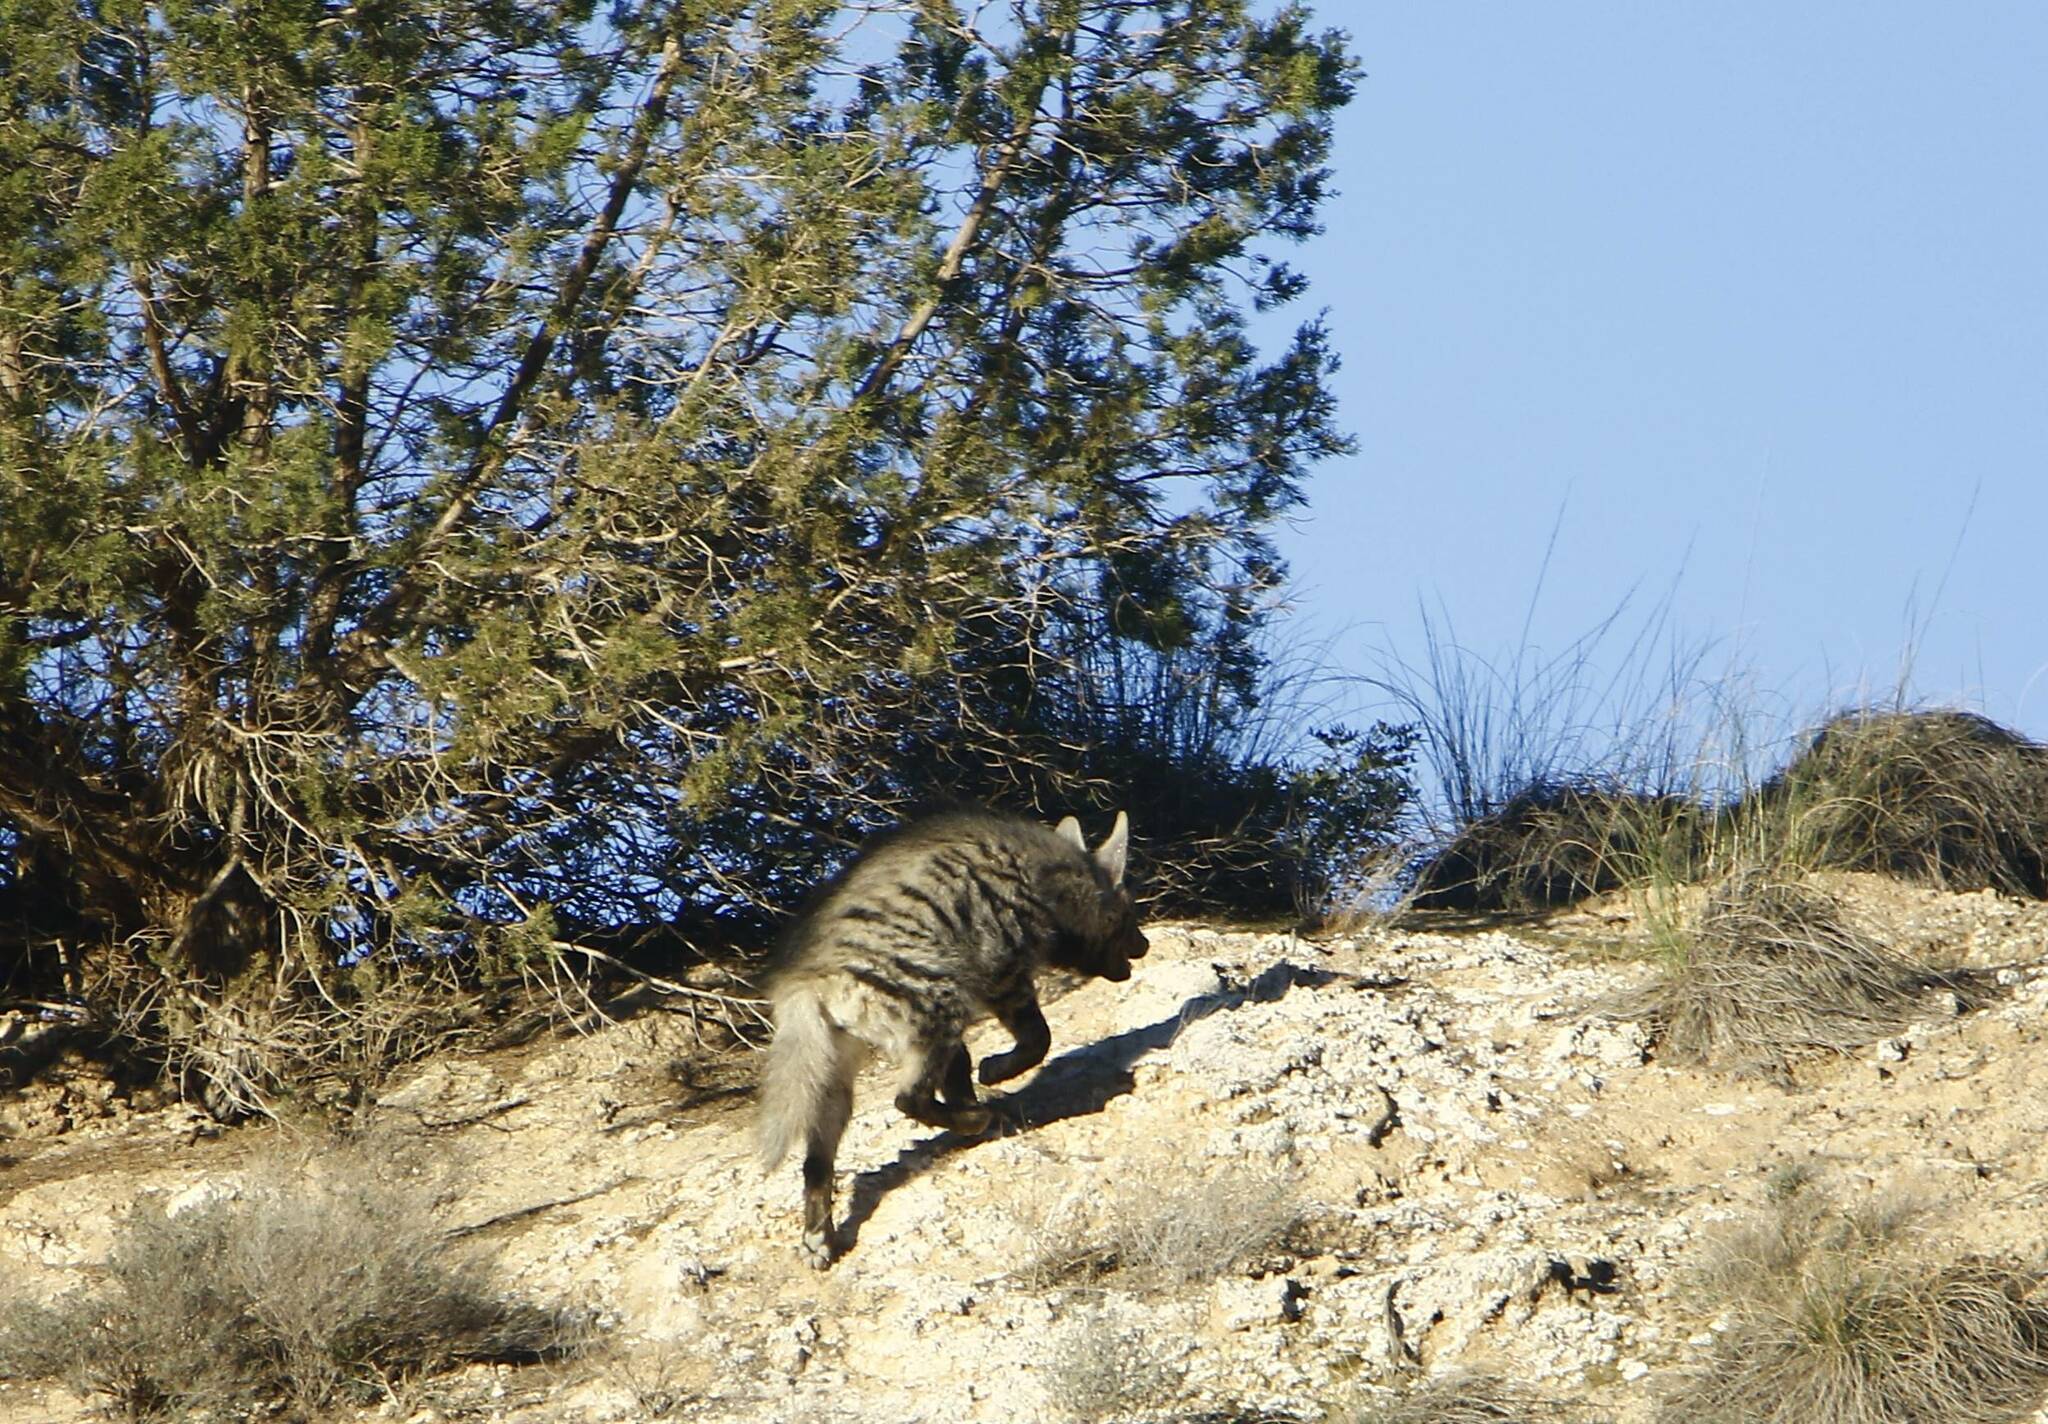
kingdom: Animalia
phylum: Chordata
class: Mammalia
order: Carnivora
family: Hyaenidae
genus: Hyaena
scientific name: Hyaena hyaena
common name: Striped hyaena
